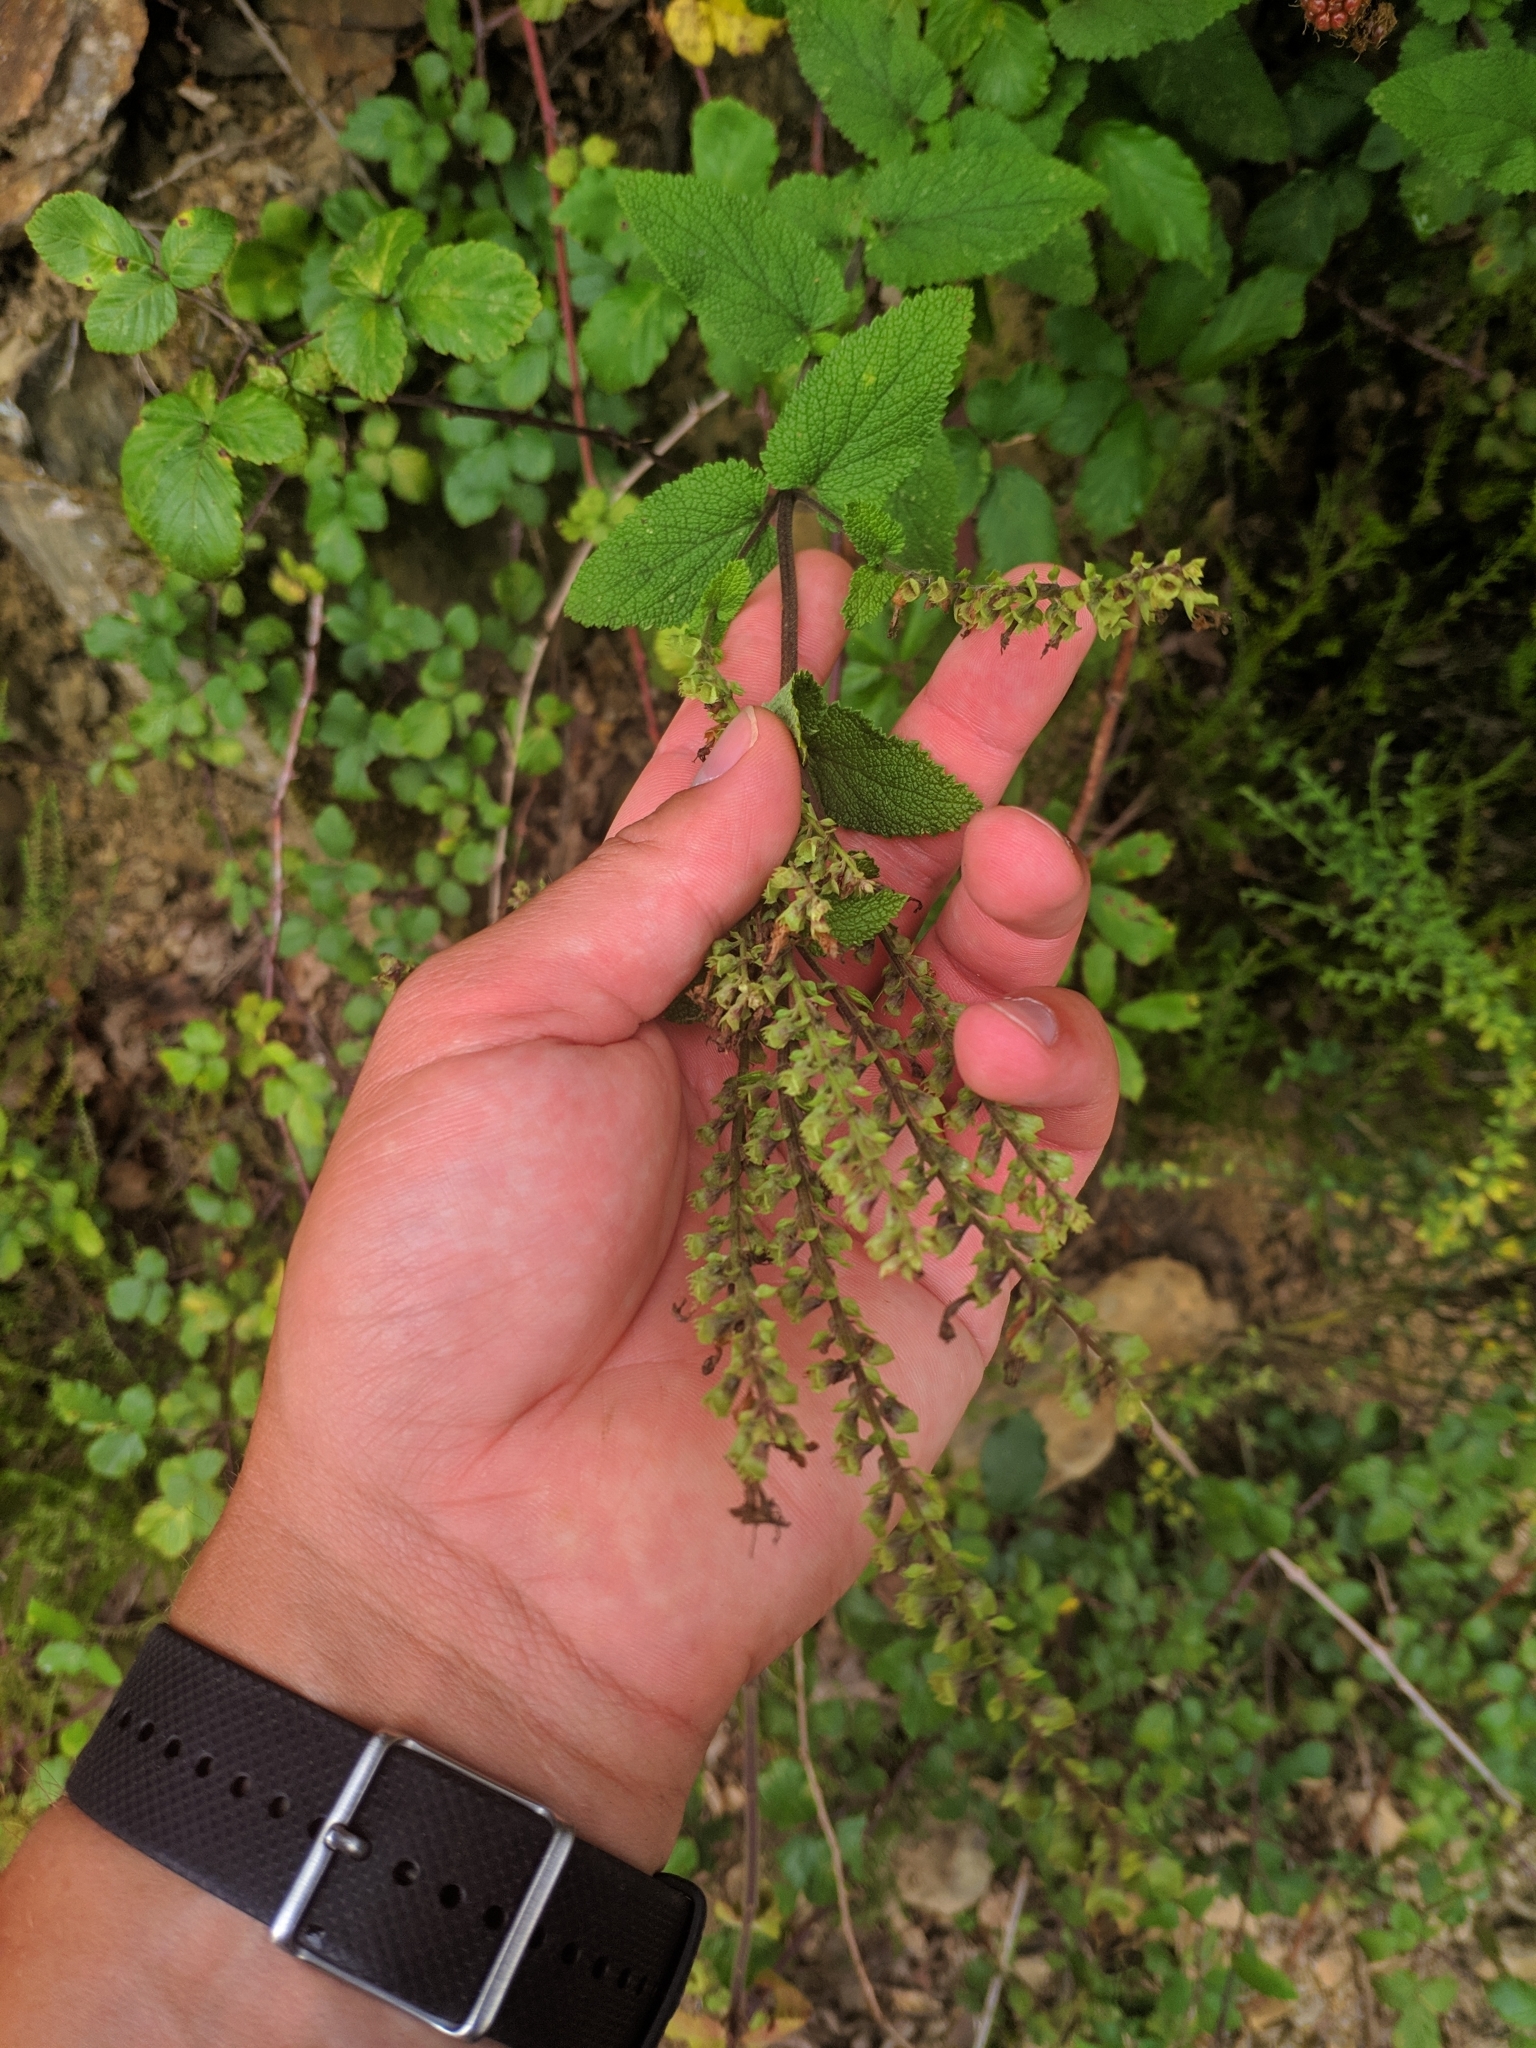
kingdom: Plantae
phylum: Tracheophyta
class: Magnoliopsida
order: Lamiales
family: Lamiaceae
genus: Teucrium
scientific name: Teucrium scorodonia
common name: Woodland germander
